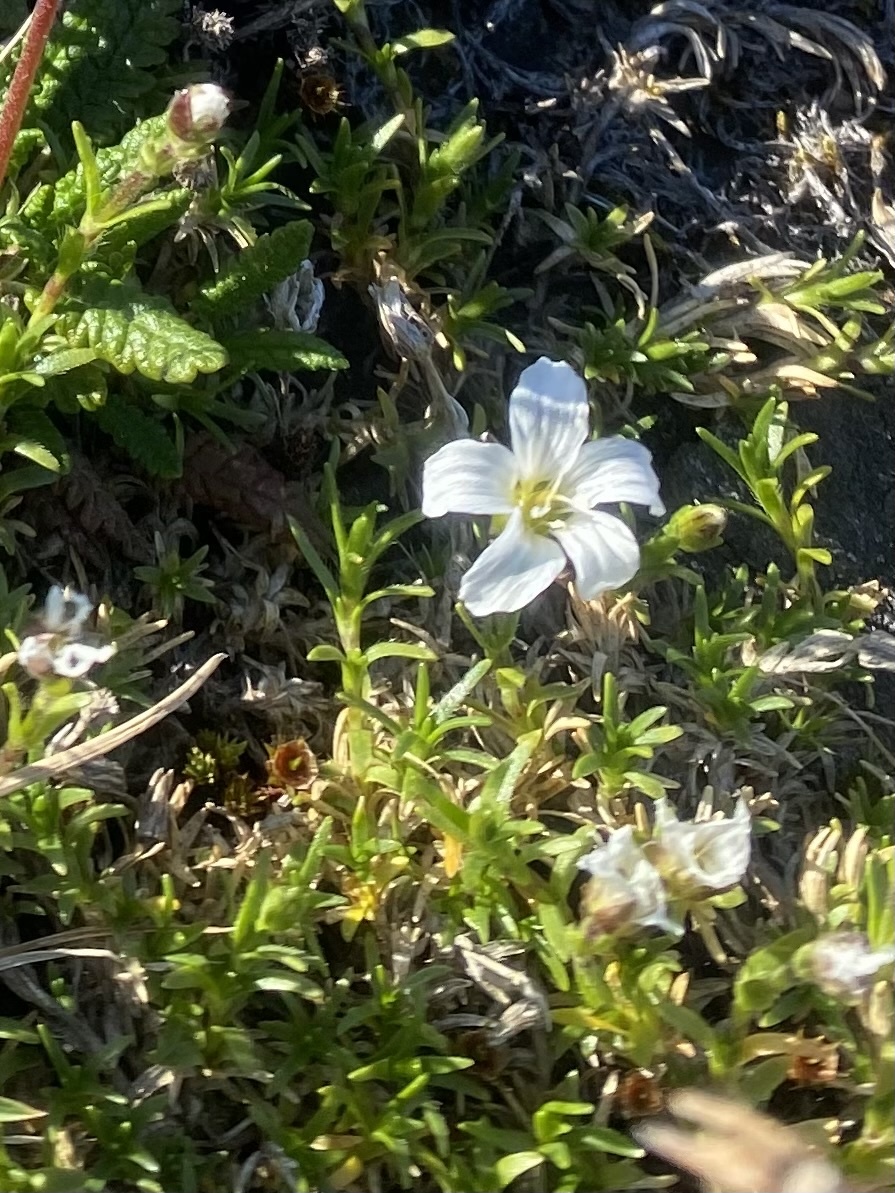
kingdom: Plantae
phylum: Tracheophyta
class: Magnoliopsida
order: Caryophyllales
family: Caryophyllaceae
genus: Cherleria
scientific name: Cherleria arctica
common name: Arctic sandwort
